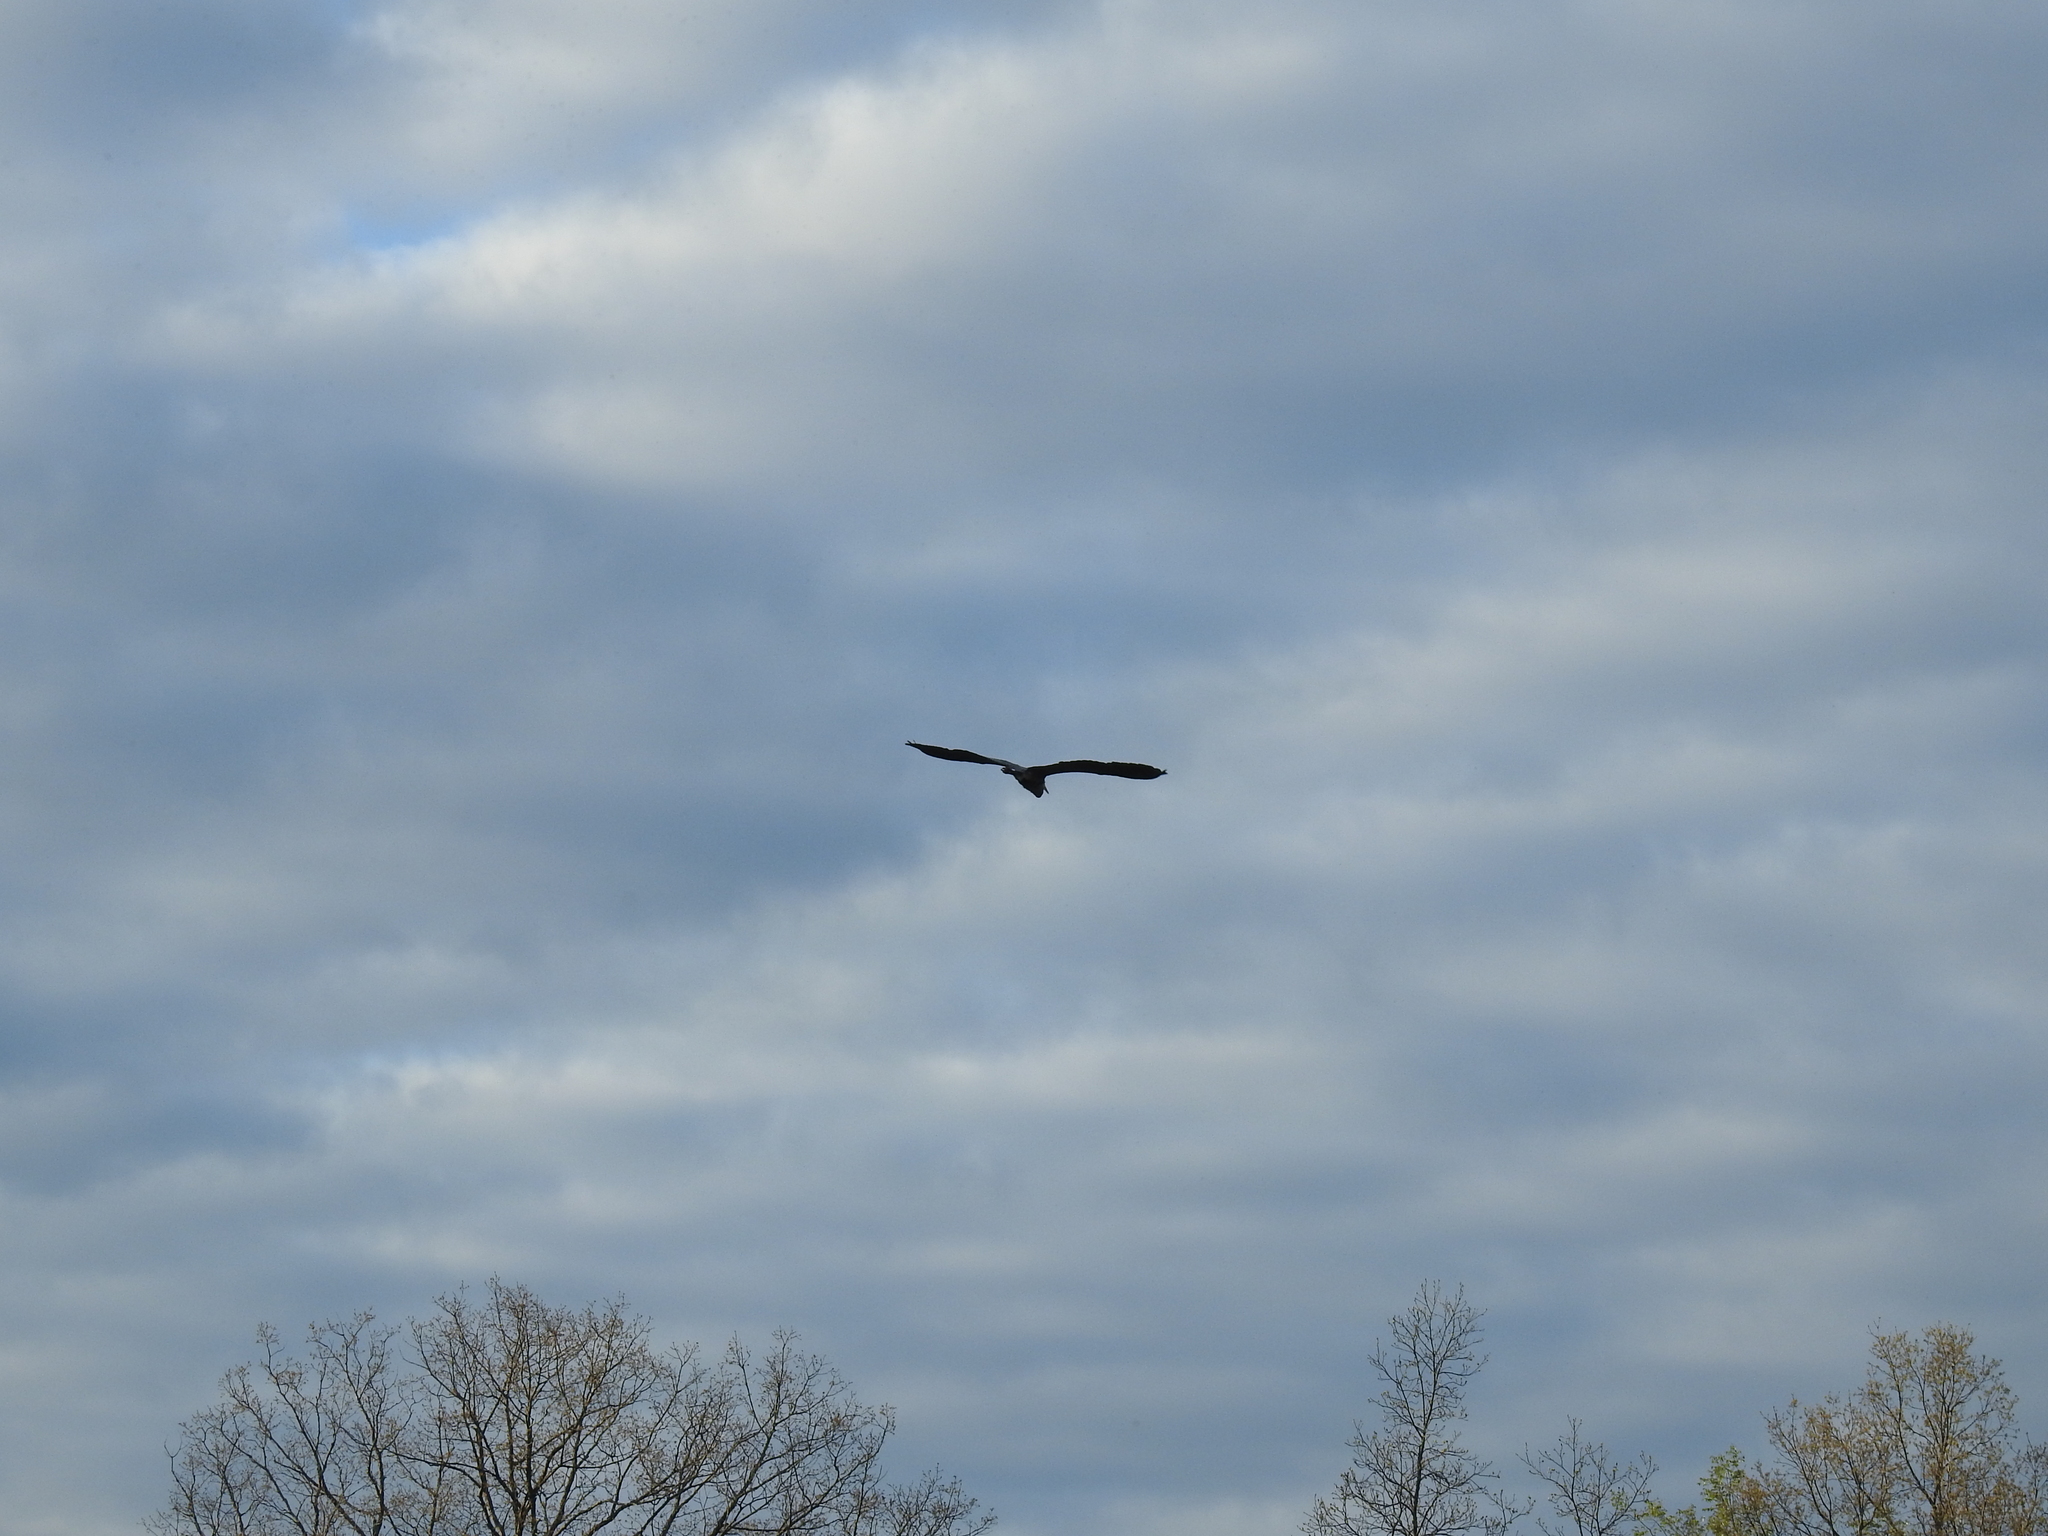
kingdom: Animalia
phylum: Chordata
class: Aves
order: Pelecaniformes
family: Ardeidae
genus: Ardea
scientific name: Ardea herodias
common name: Great blue heron
